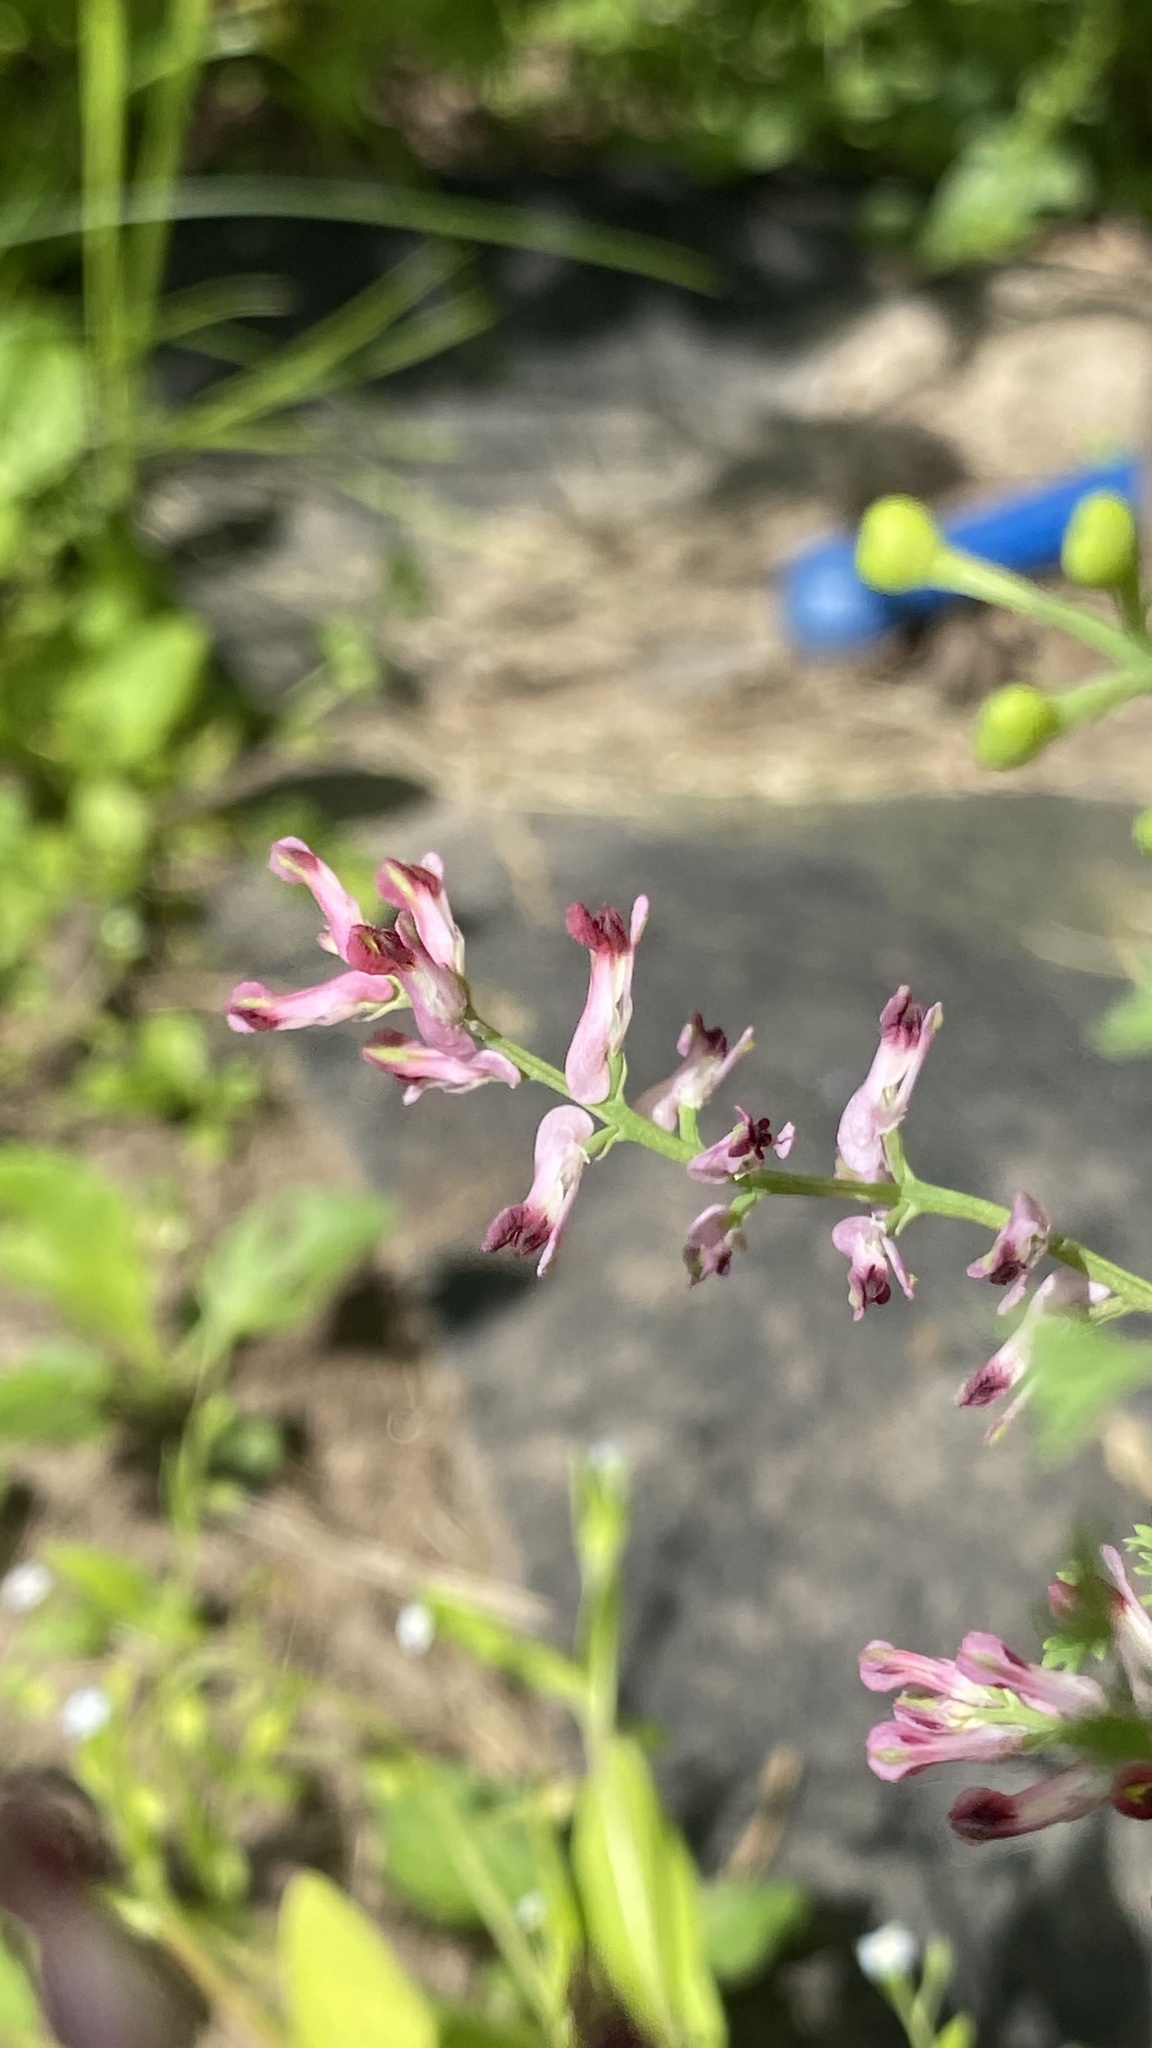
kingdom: Plantae
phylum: Tracheophyta
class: Magnoliopsida
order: Ranunculales
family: Papaveraceae
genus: Fumaria
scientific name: Fumaria officinalis
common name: Common fumitory
